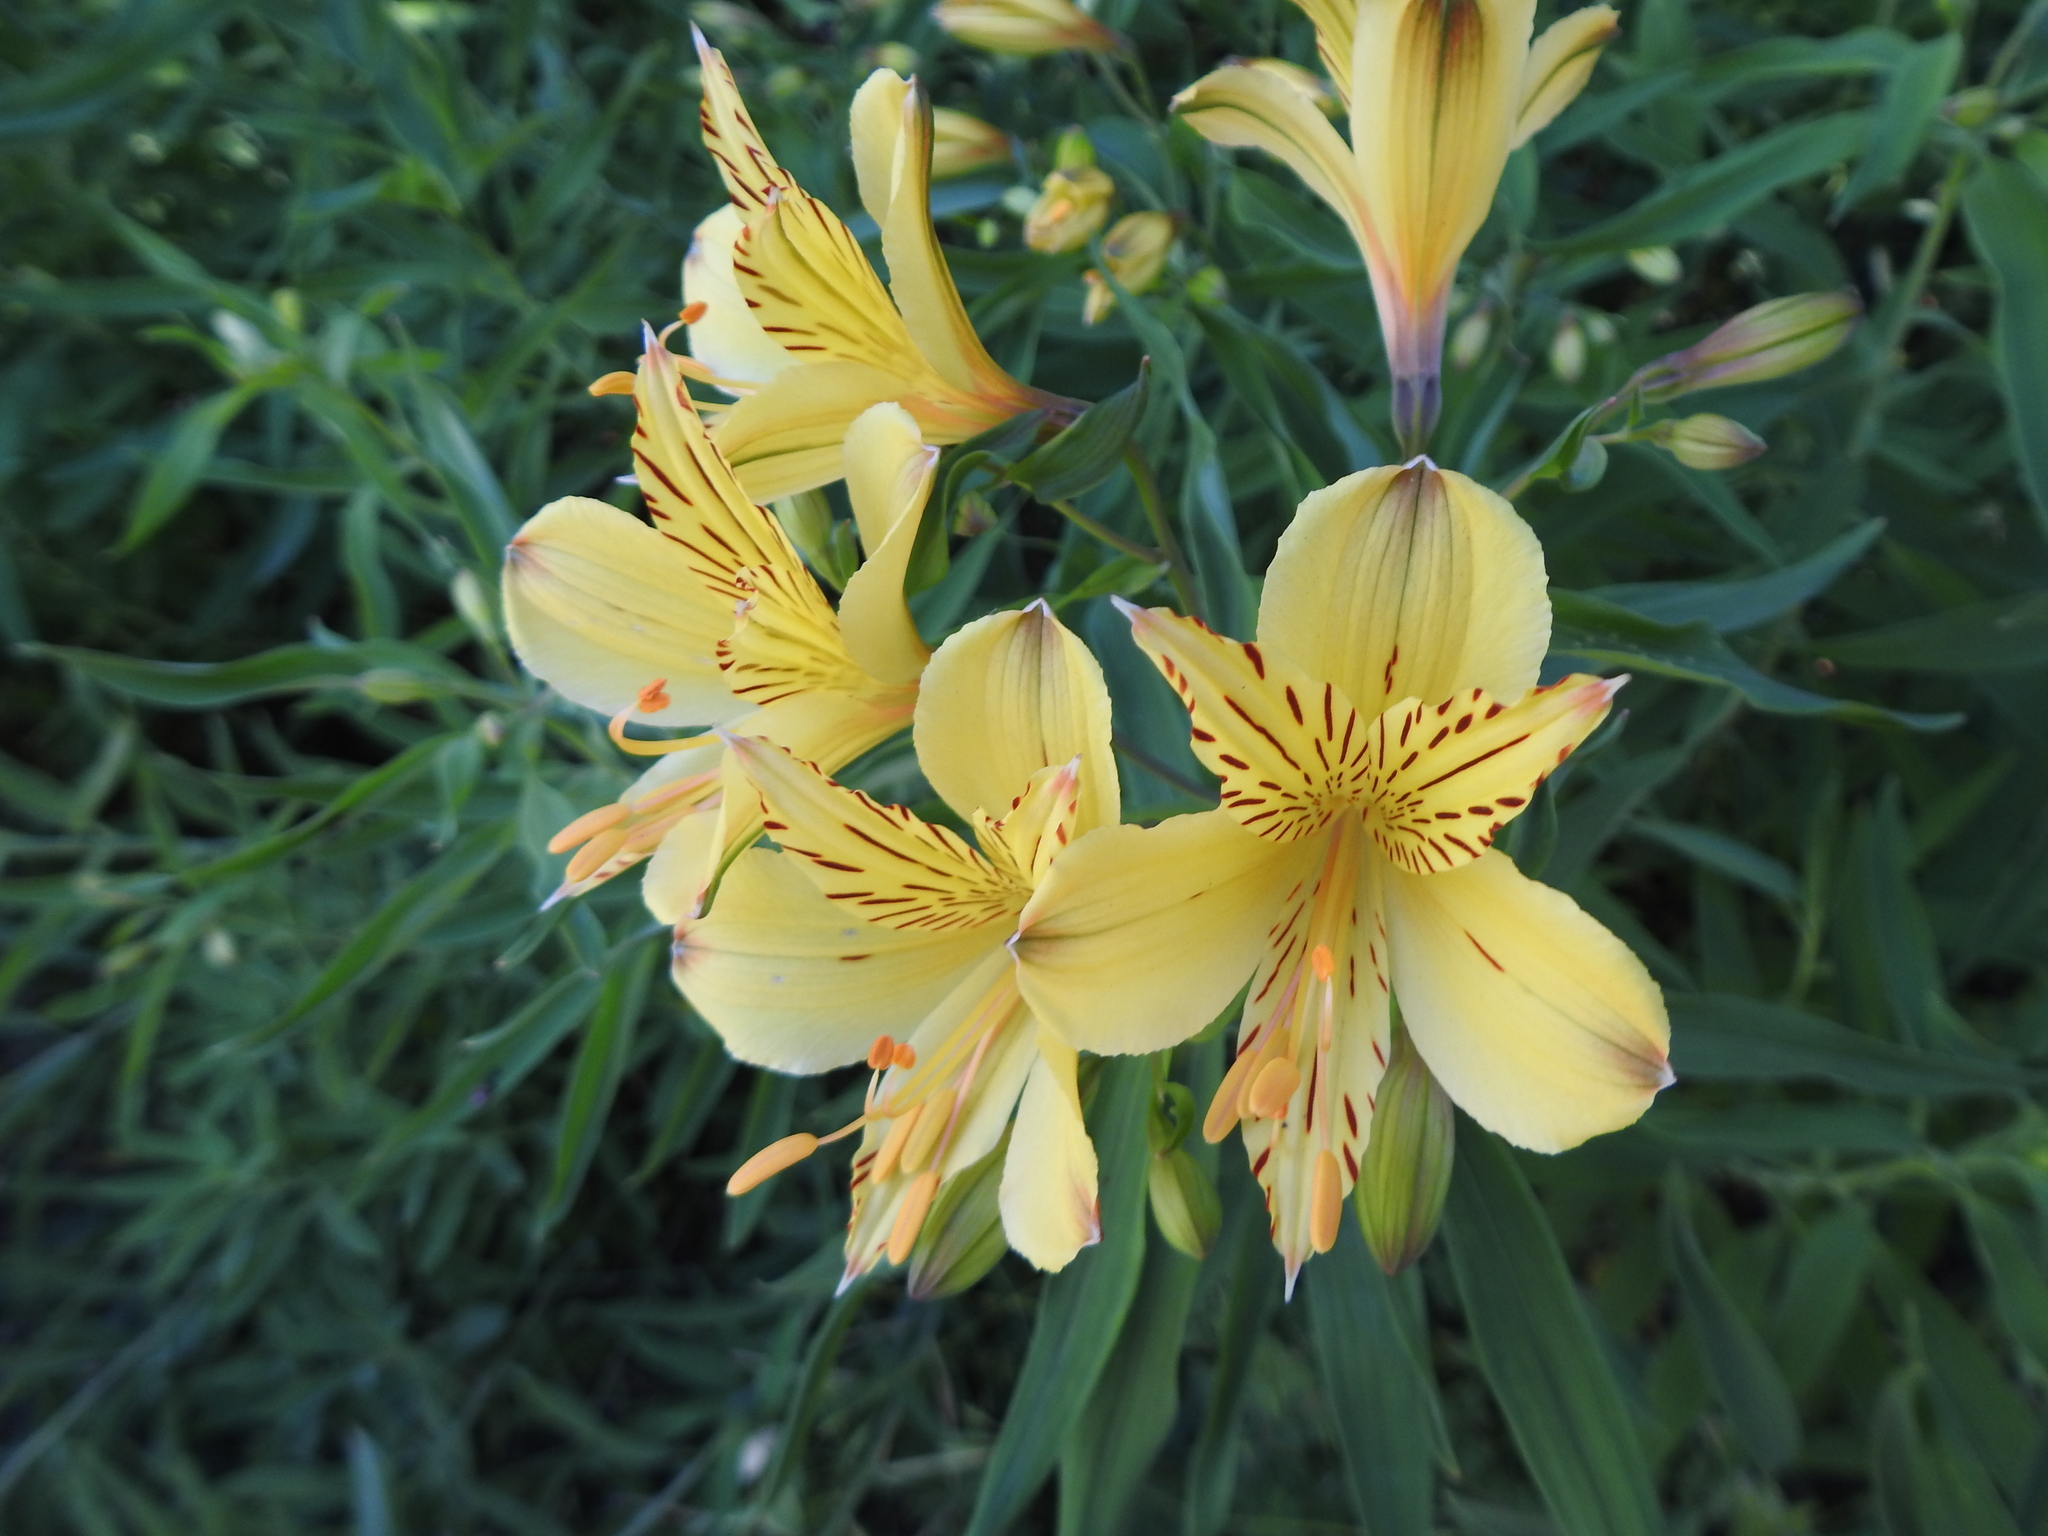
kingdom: Plantae
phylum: Tracheophyta
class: Liliopsida
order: Liliales
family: Alstroemeriaceae
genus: Alstroemeria
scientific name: Alstroemeria aurea
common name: Peruvian lily
